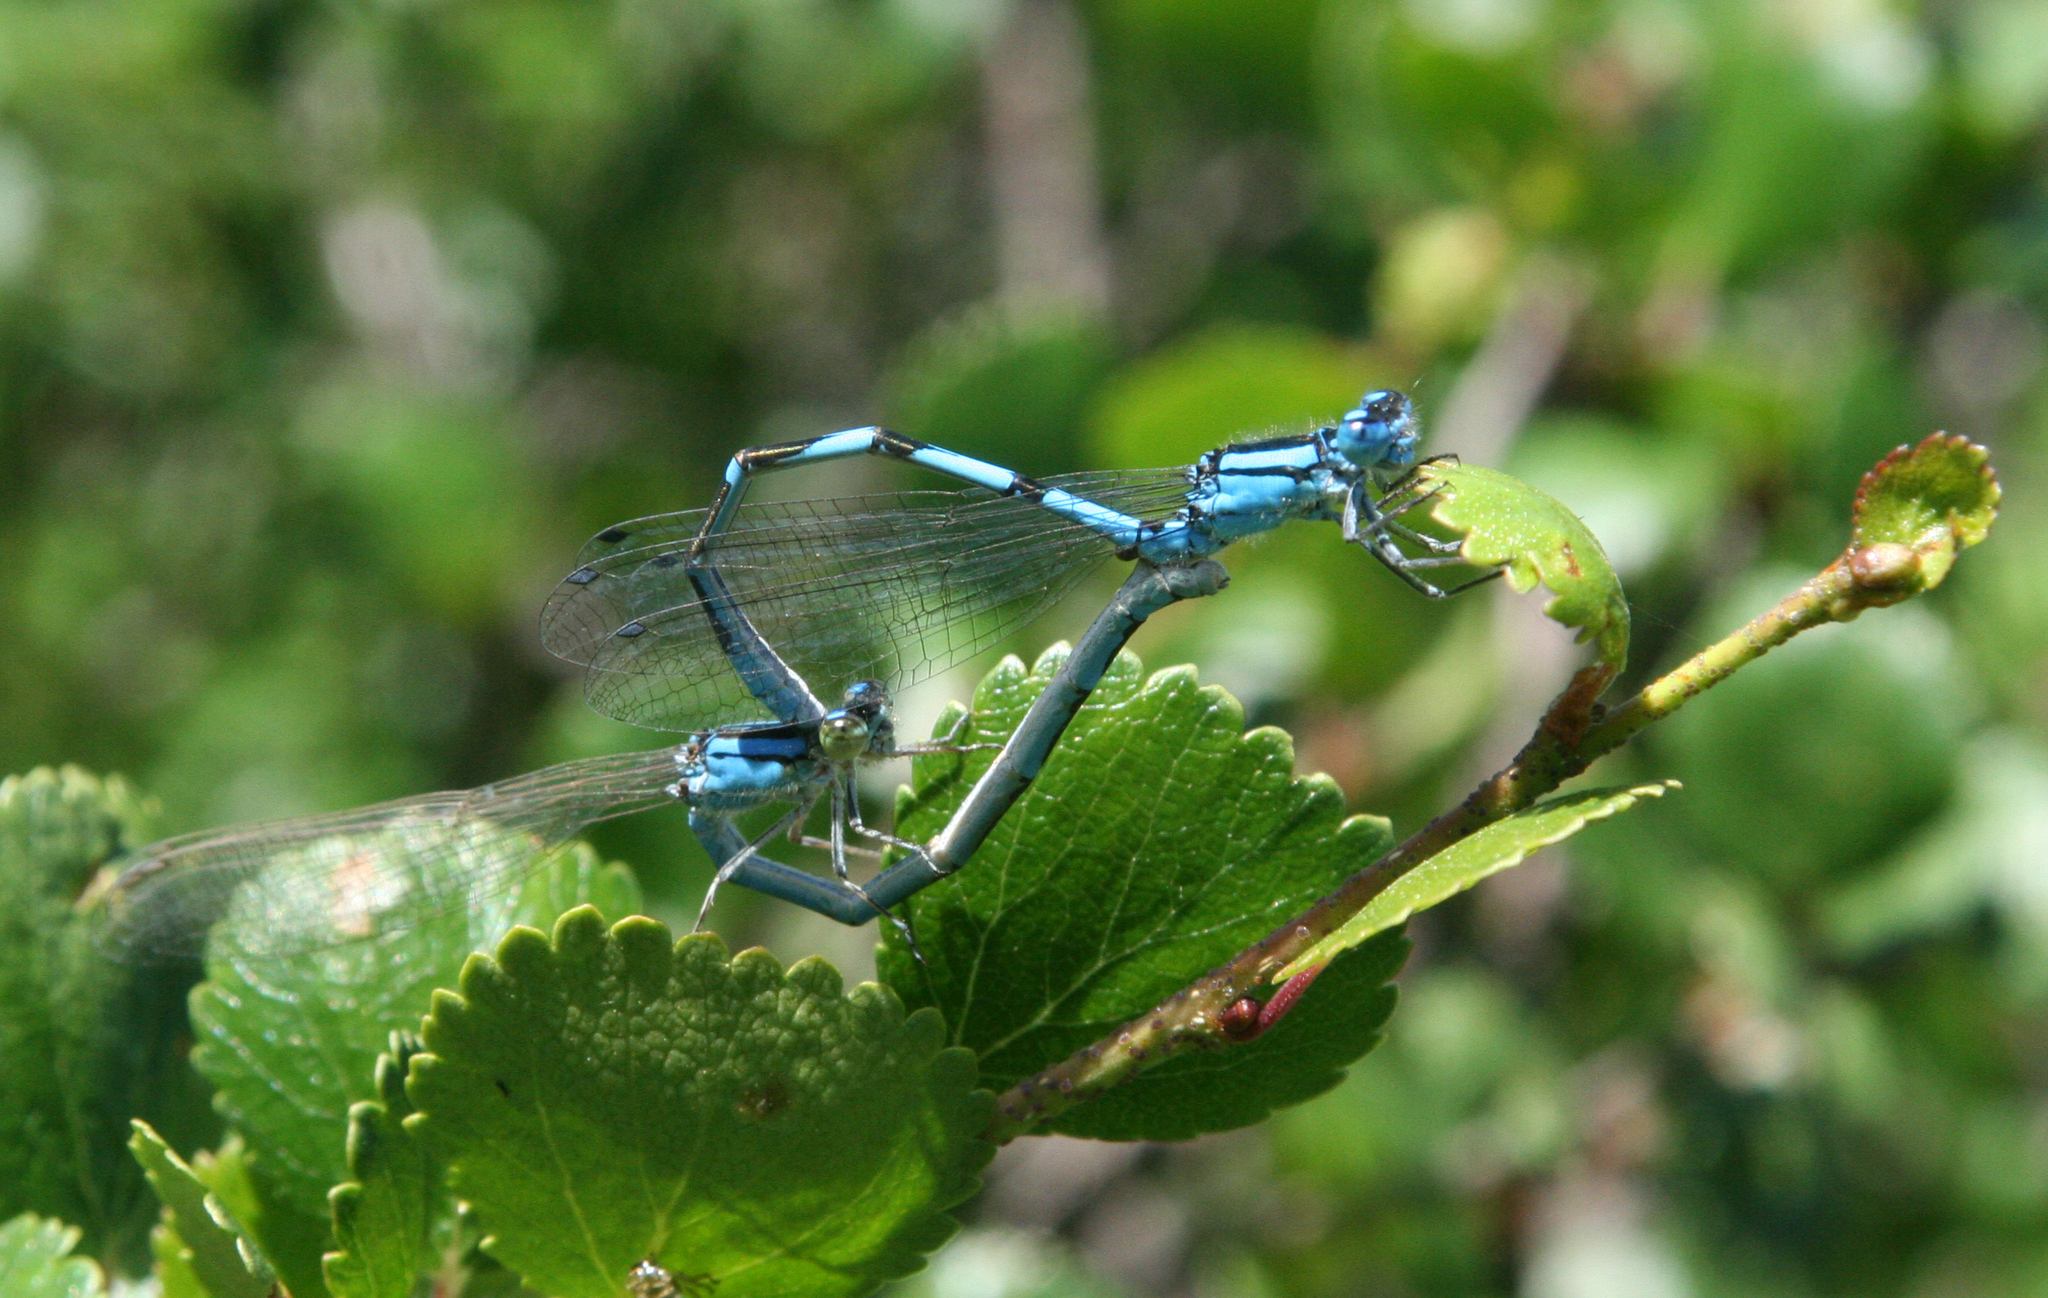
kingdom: Animalia
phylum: Arthropoda
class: Insecta
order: Odonata
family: Coenagrionidae
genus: Enallagma
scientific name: Enallagma cyathigerum
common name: Common blue damselfly
